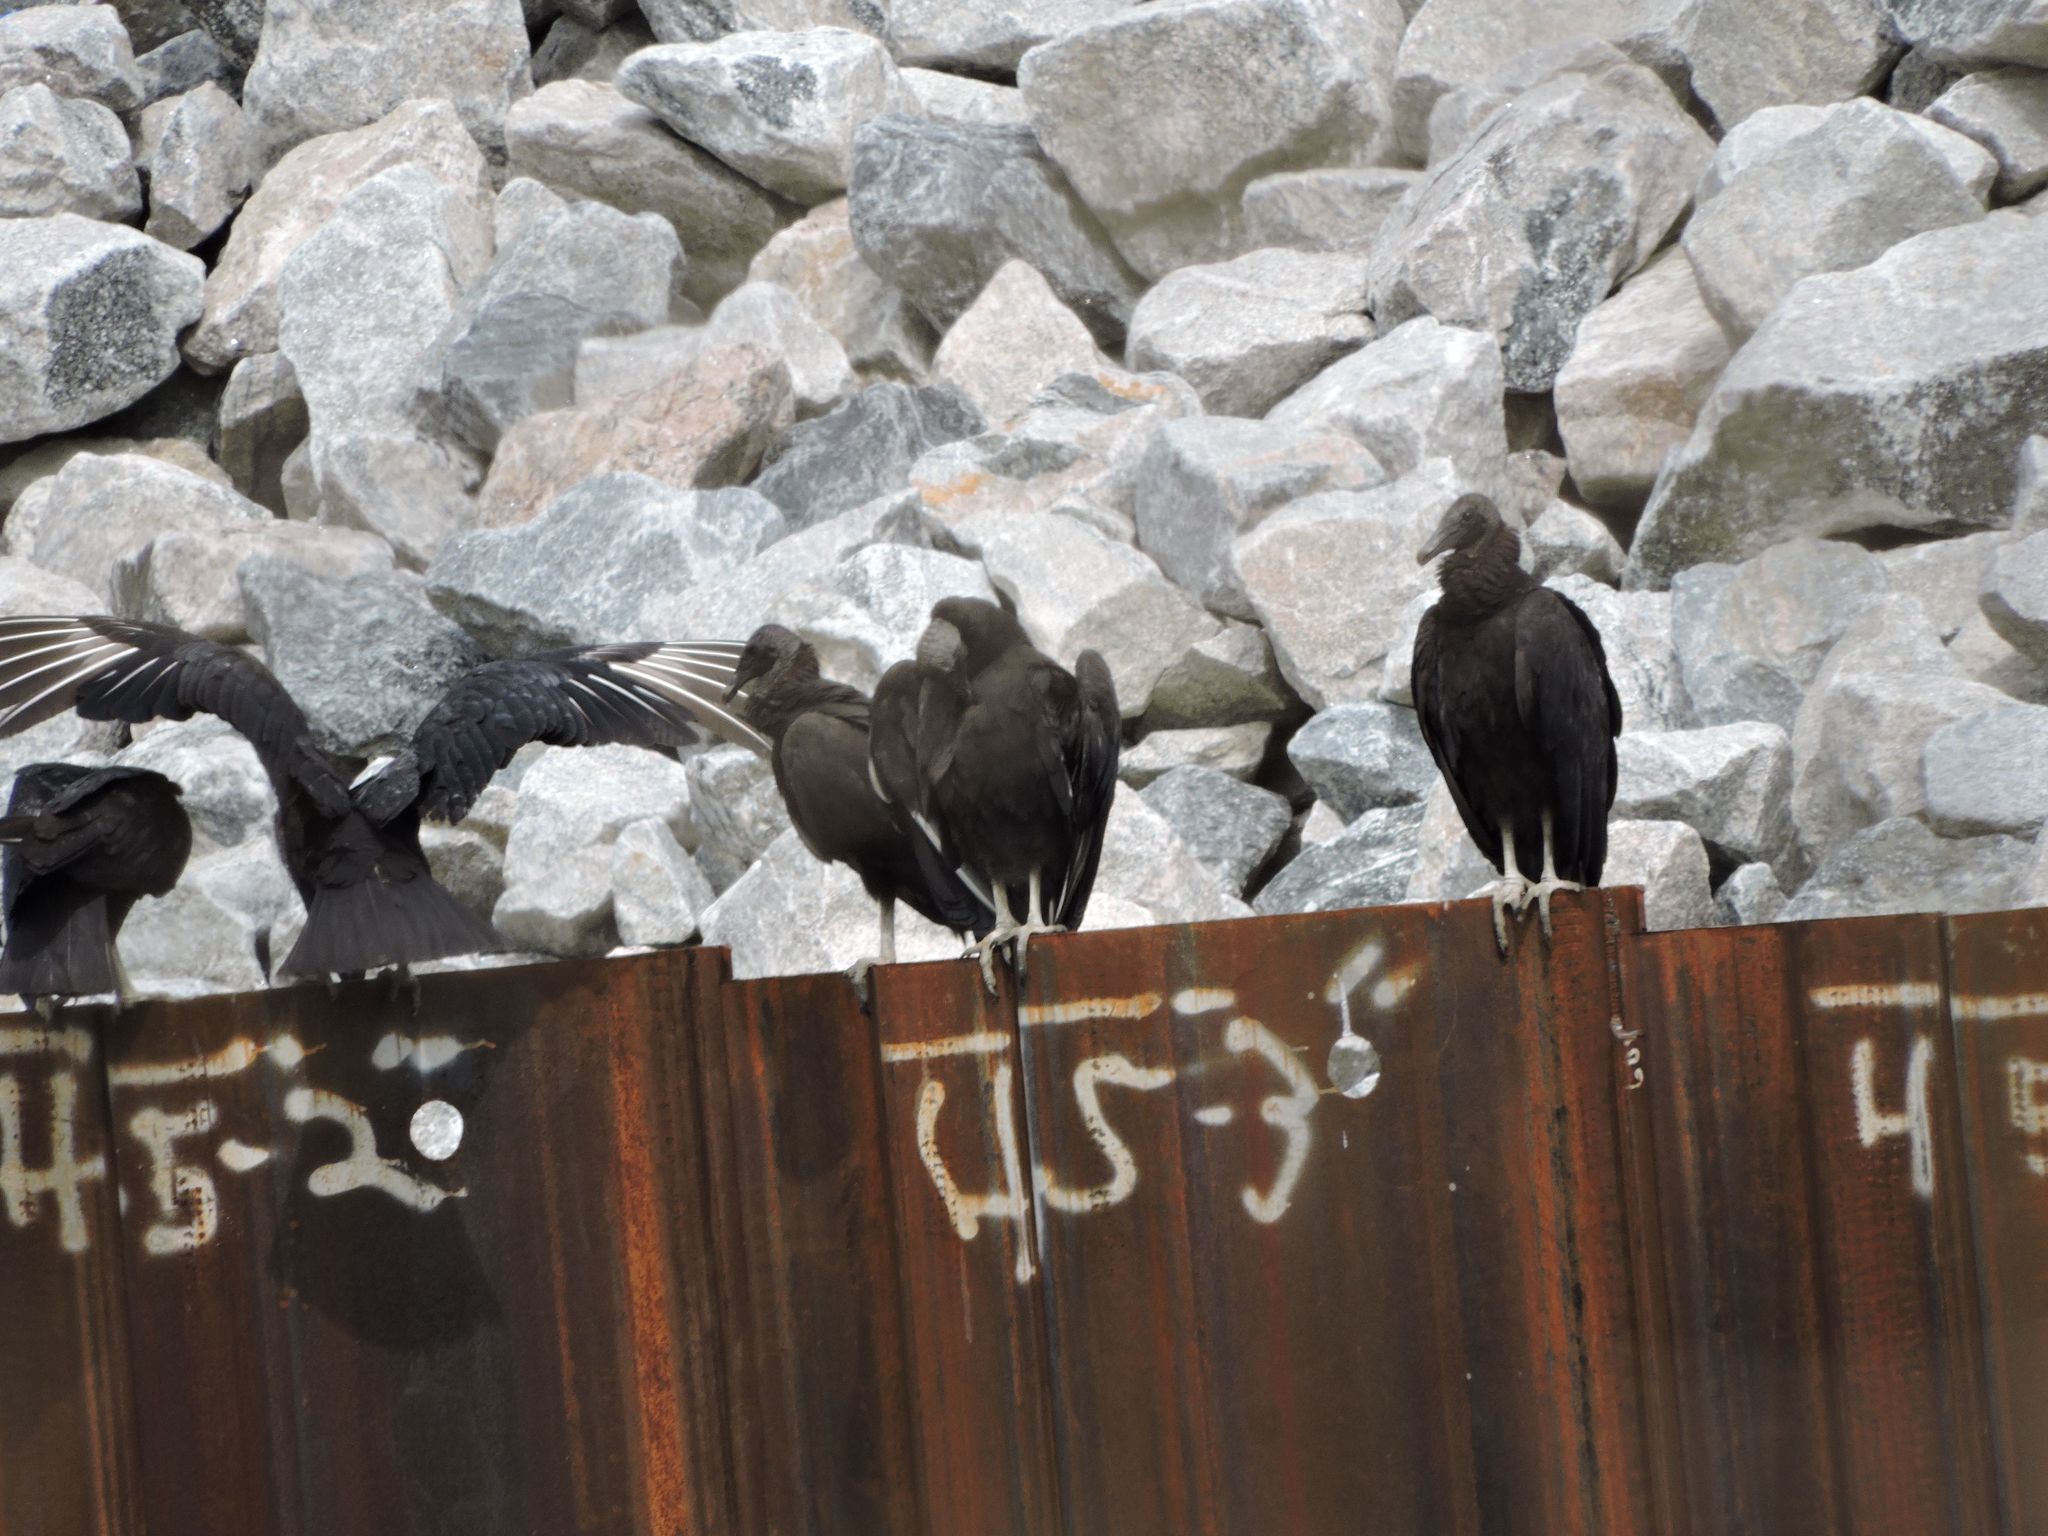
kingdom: Animalia
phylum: Chordata
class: Aves
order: Accipitriformes
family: Cathartidae
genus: Coragyps
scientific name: Coragyps atratus
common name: Black vulture
